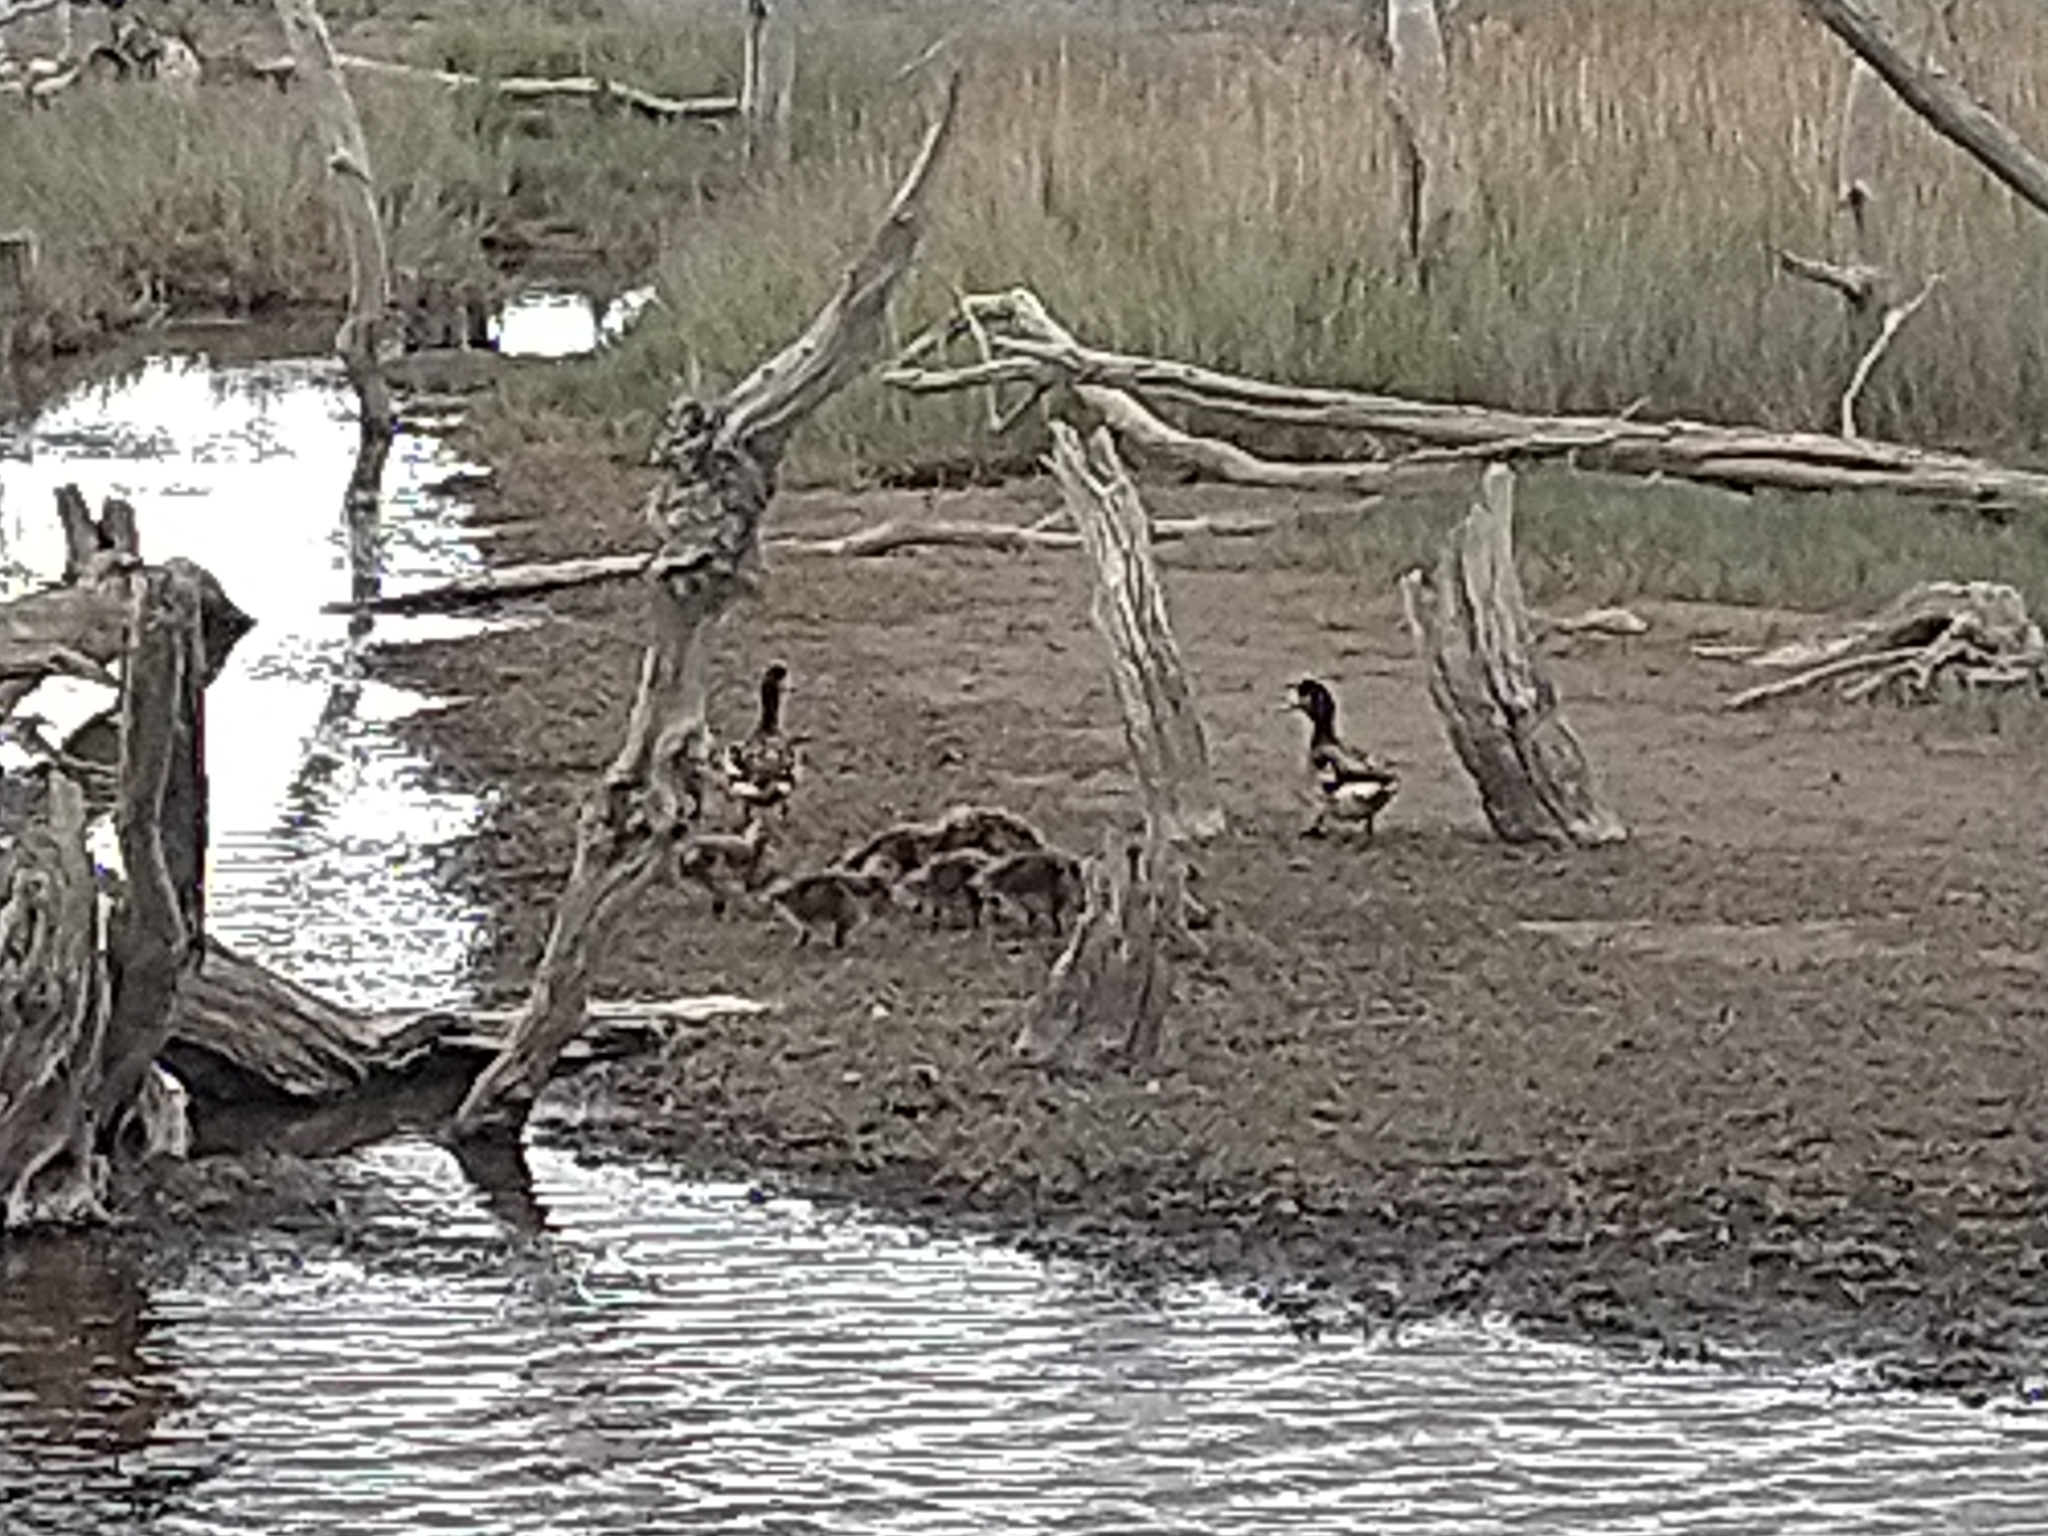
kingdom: Animalia
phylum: Chordata
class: Aves
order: Anseriformes
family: Anatidae
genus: Mareca
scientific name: Mareca sibilatrix
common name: Chiloe wigeon
